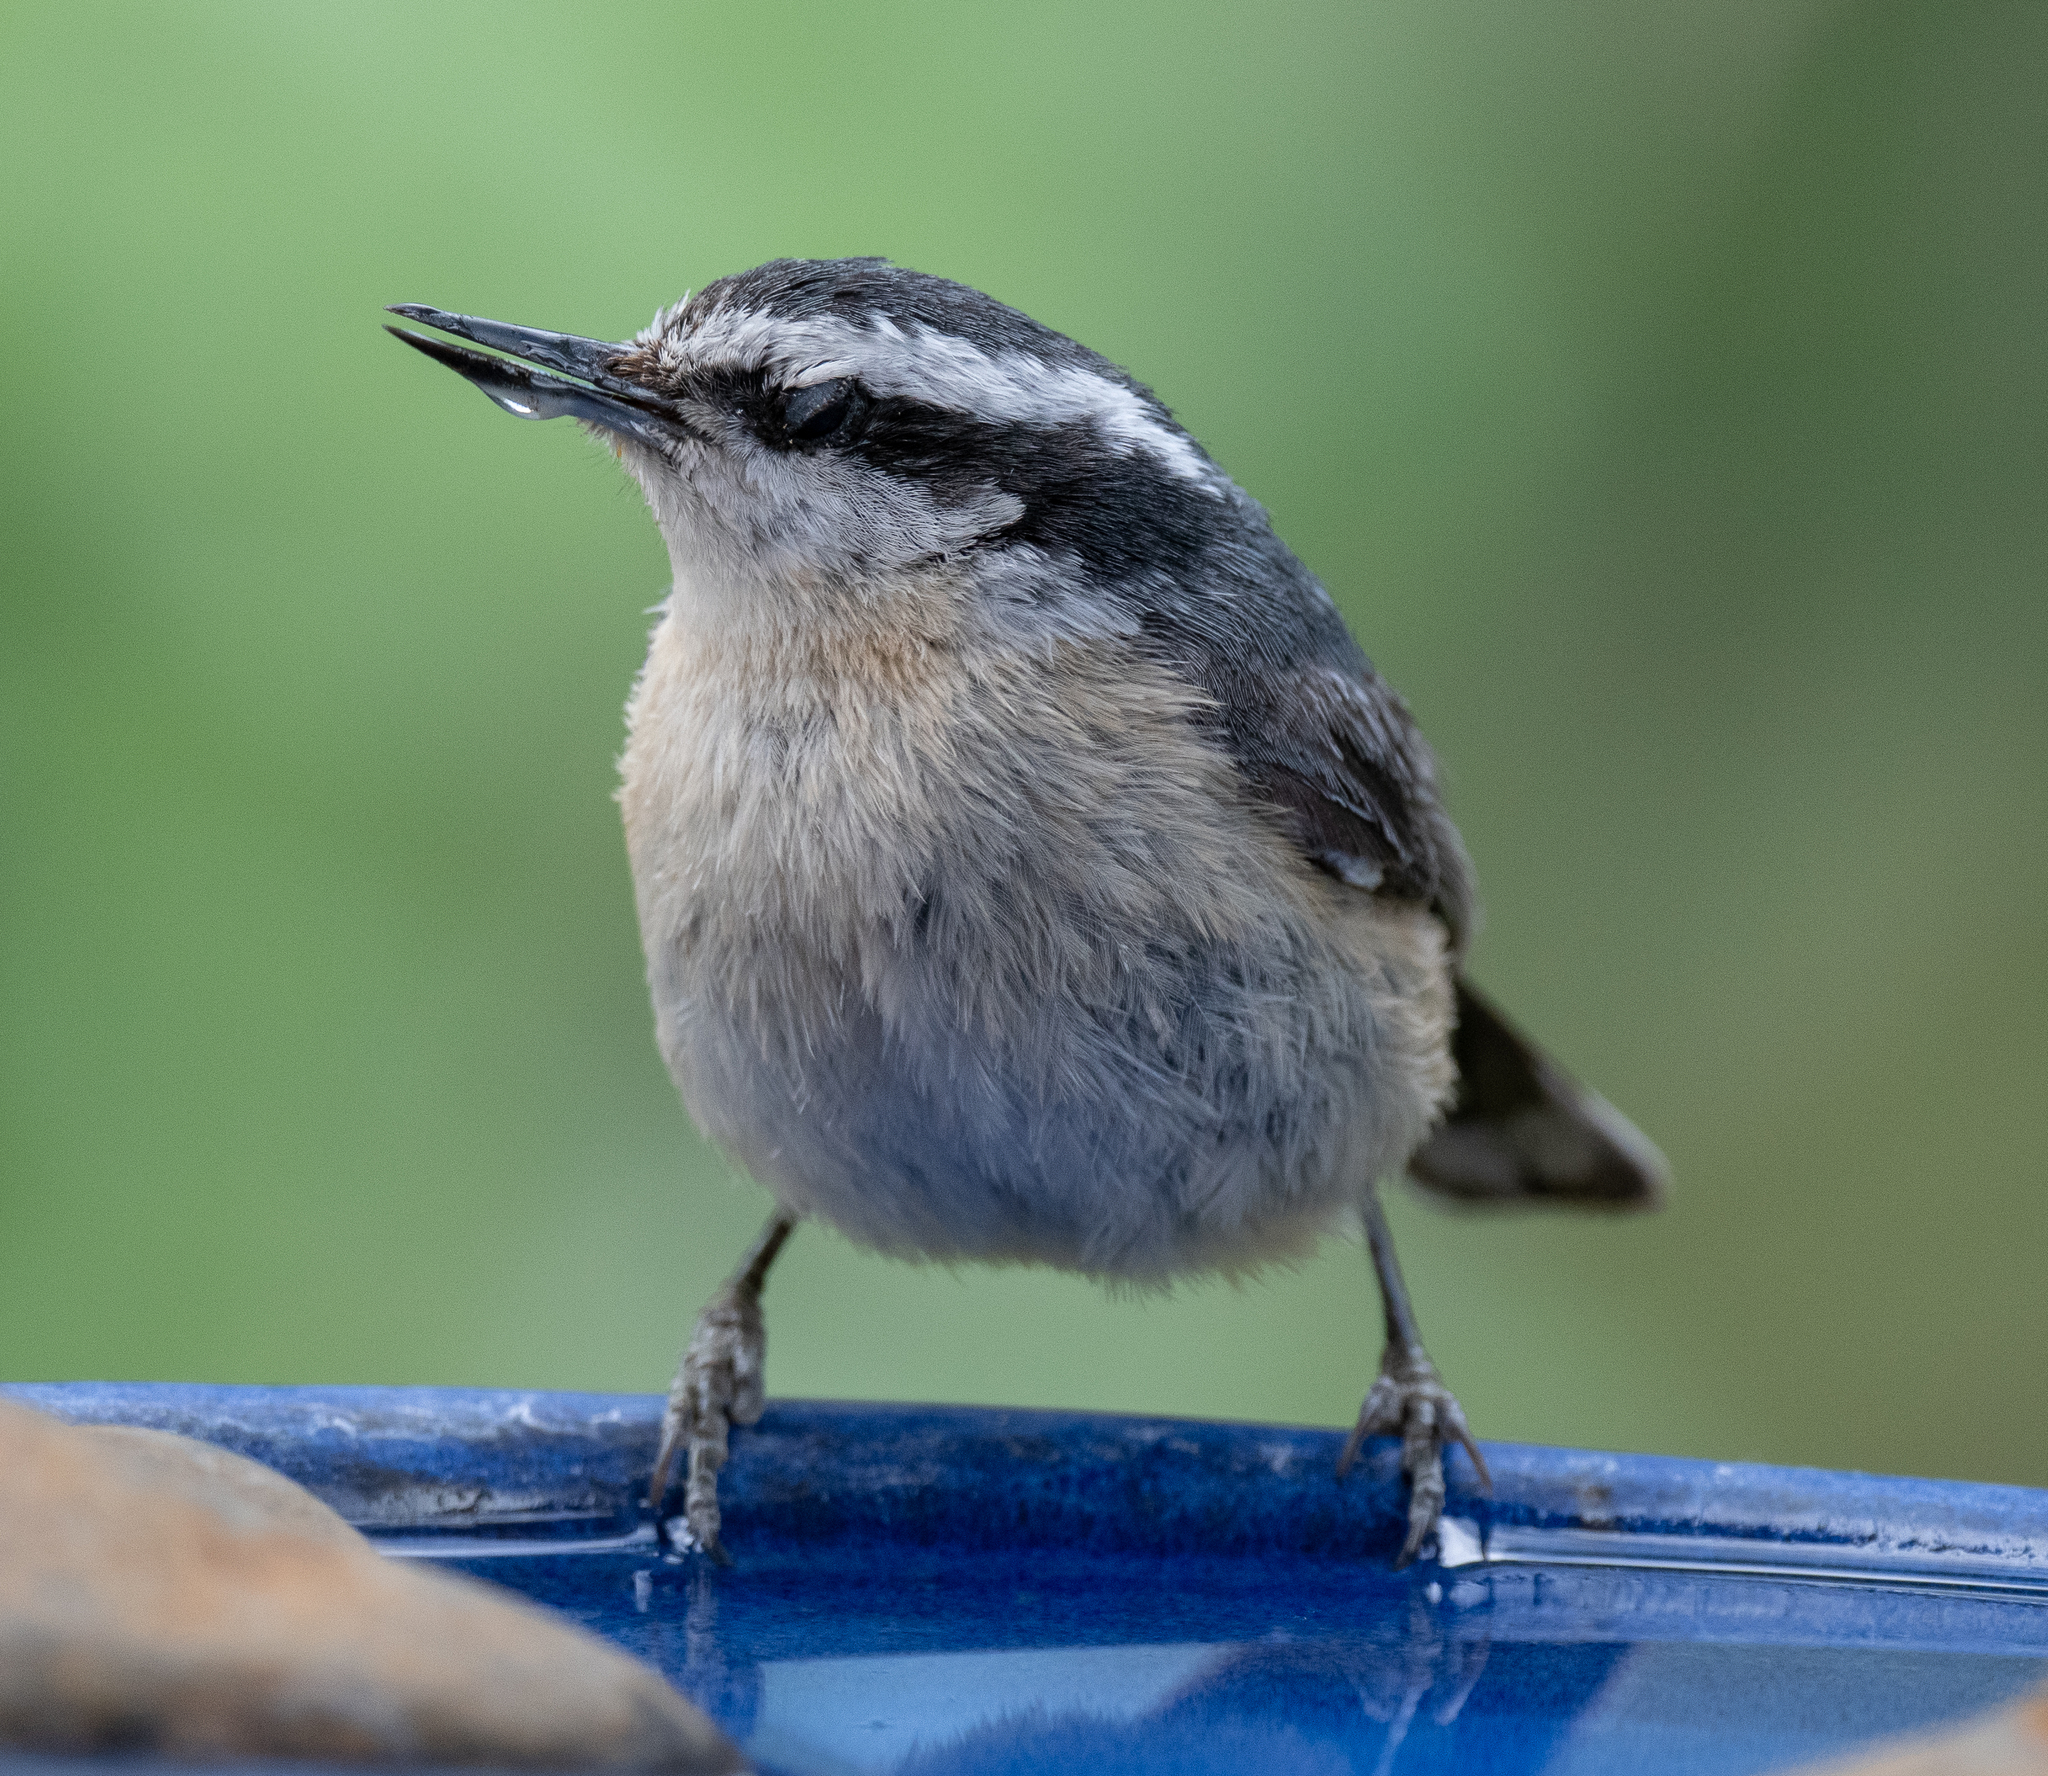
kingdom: Animalia
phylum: Chordata
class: Aves
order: Passeriformes
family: Sittidae
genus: Sitta
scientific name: Sitta canadensis
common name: Red-breasted nuthatch
